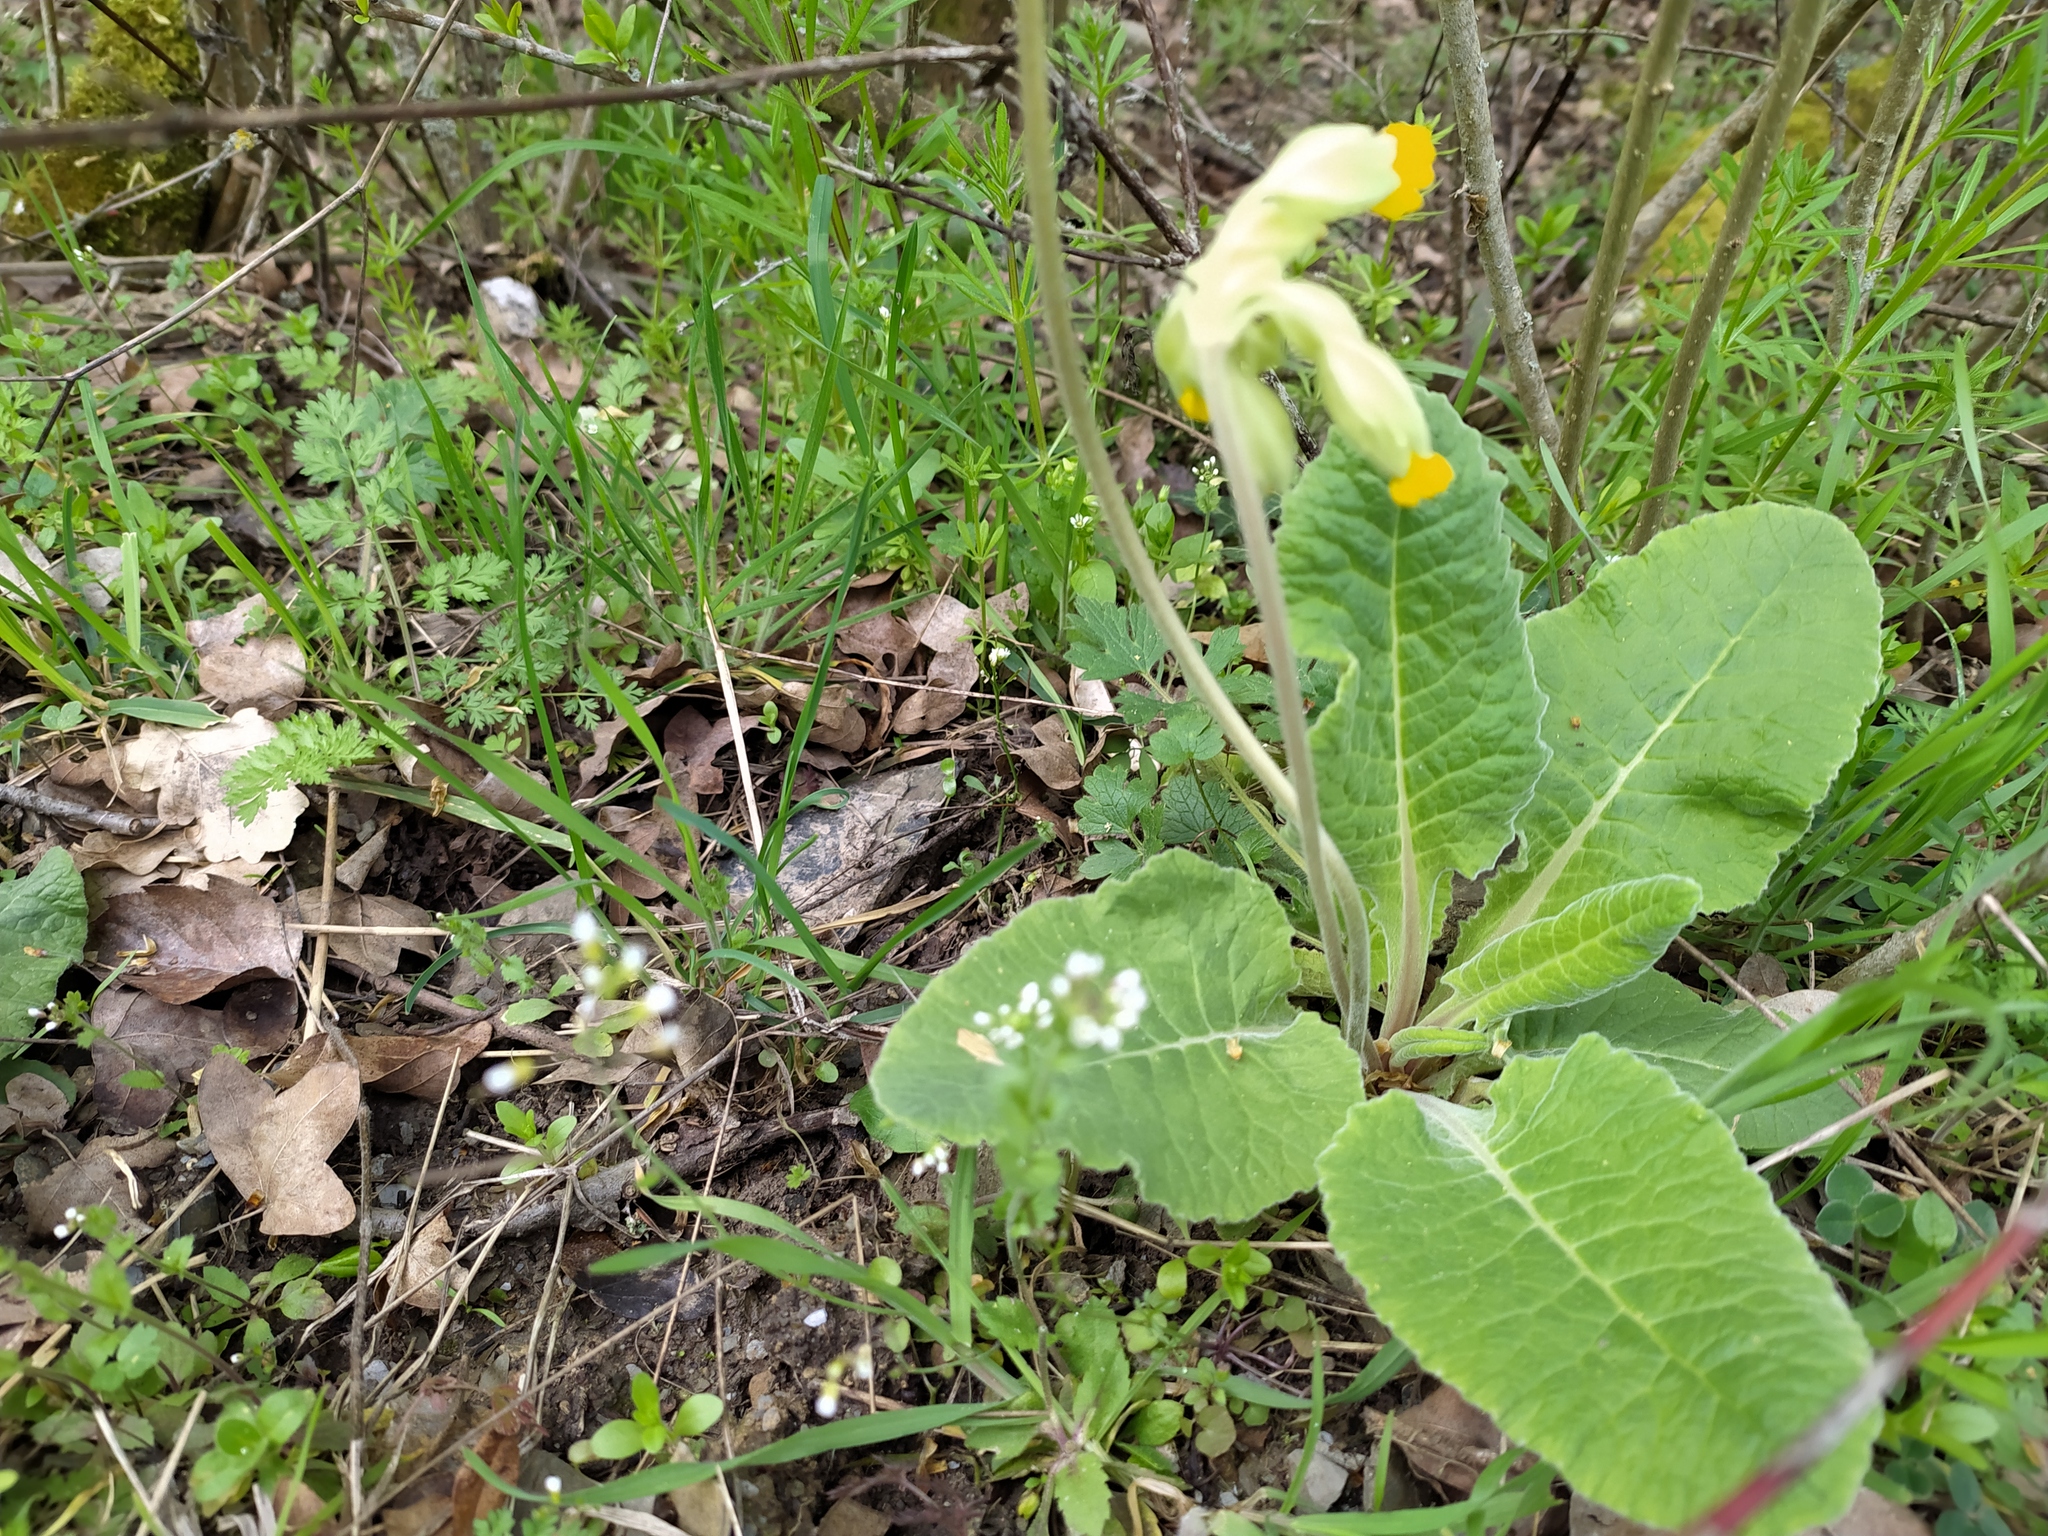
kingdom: Plantae
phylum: Tracheophyta
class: Magnoliopsida
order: Ericales
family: Primulaceae
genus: Primula
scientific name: Primula veris
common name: Cowslip
